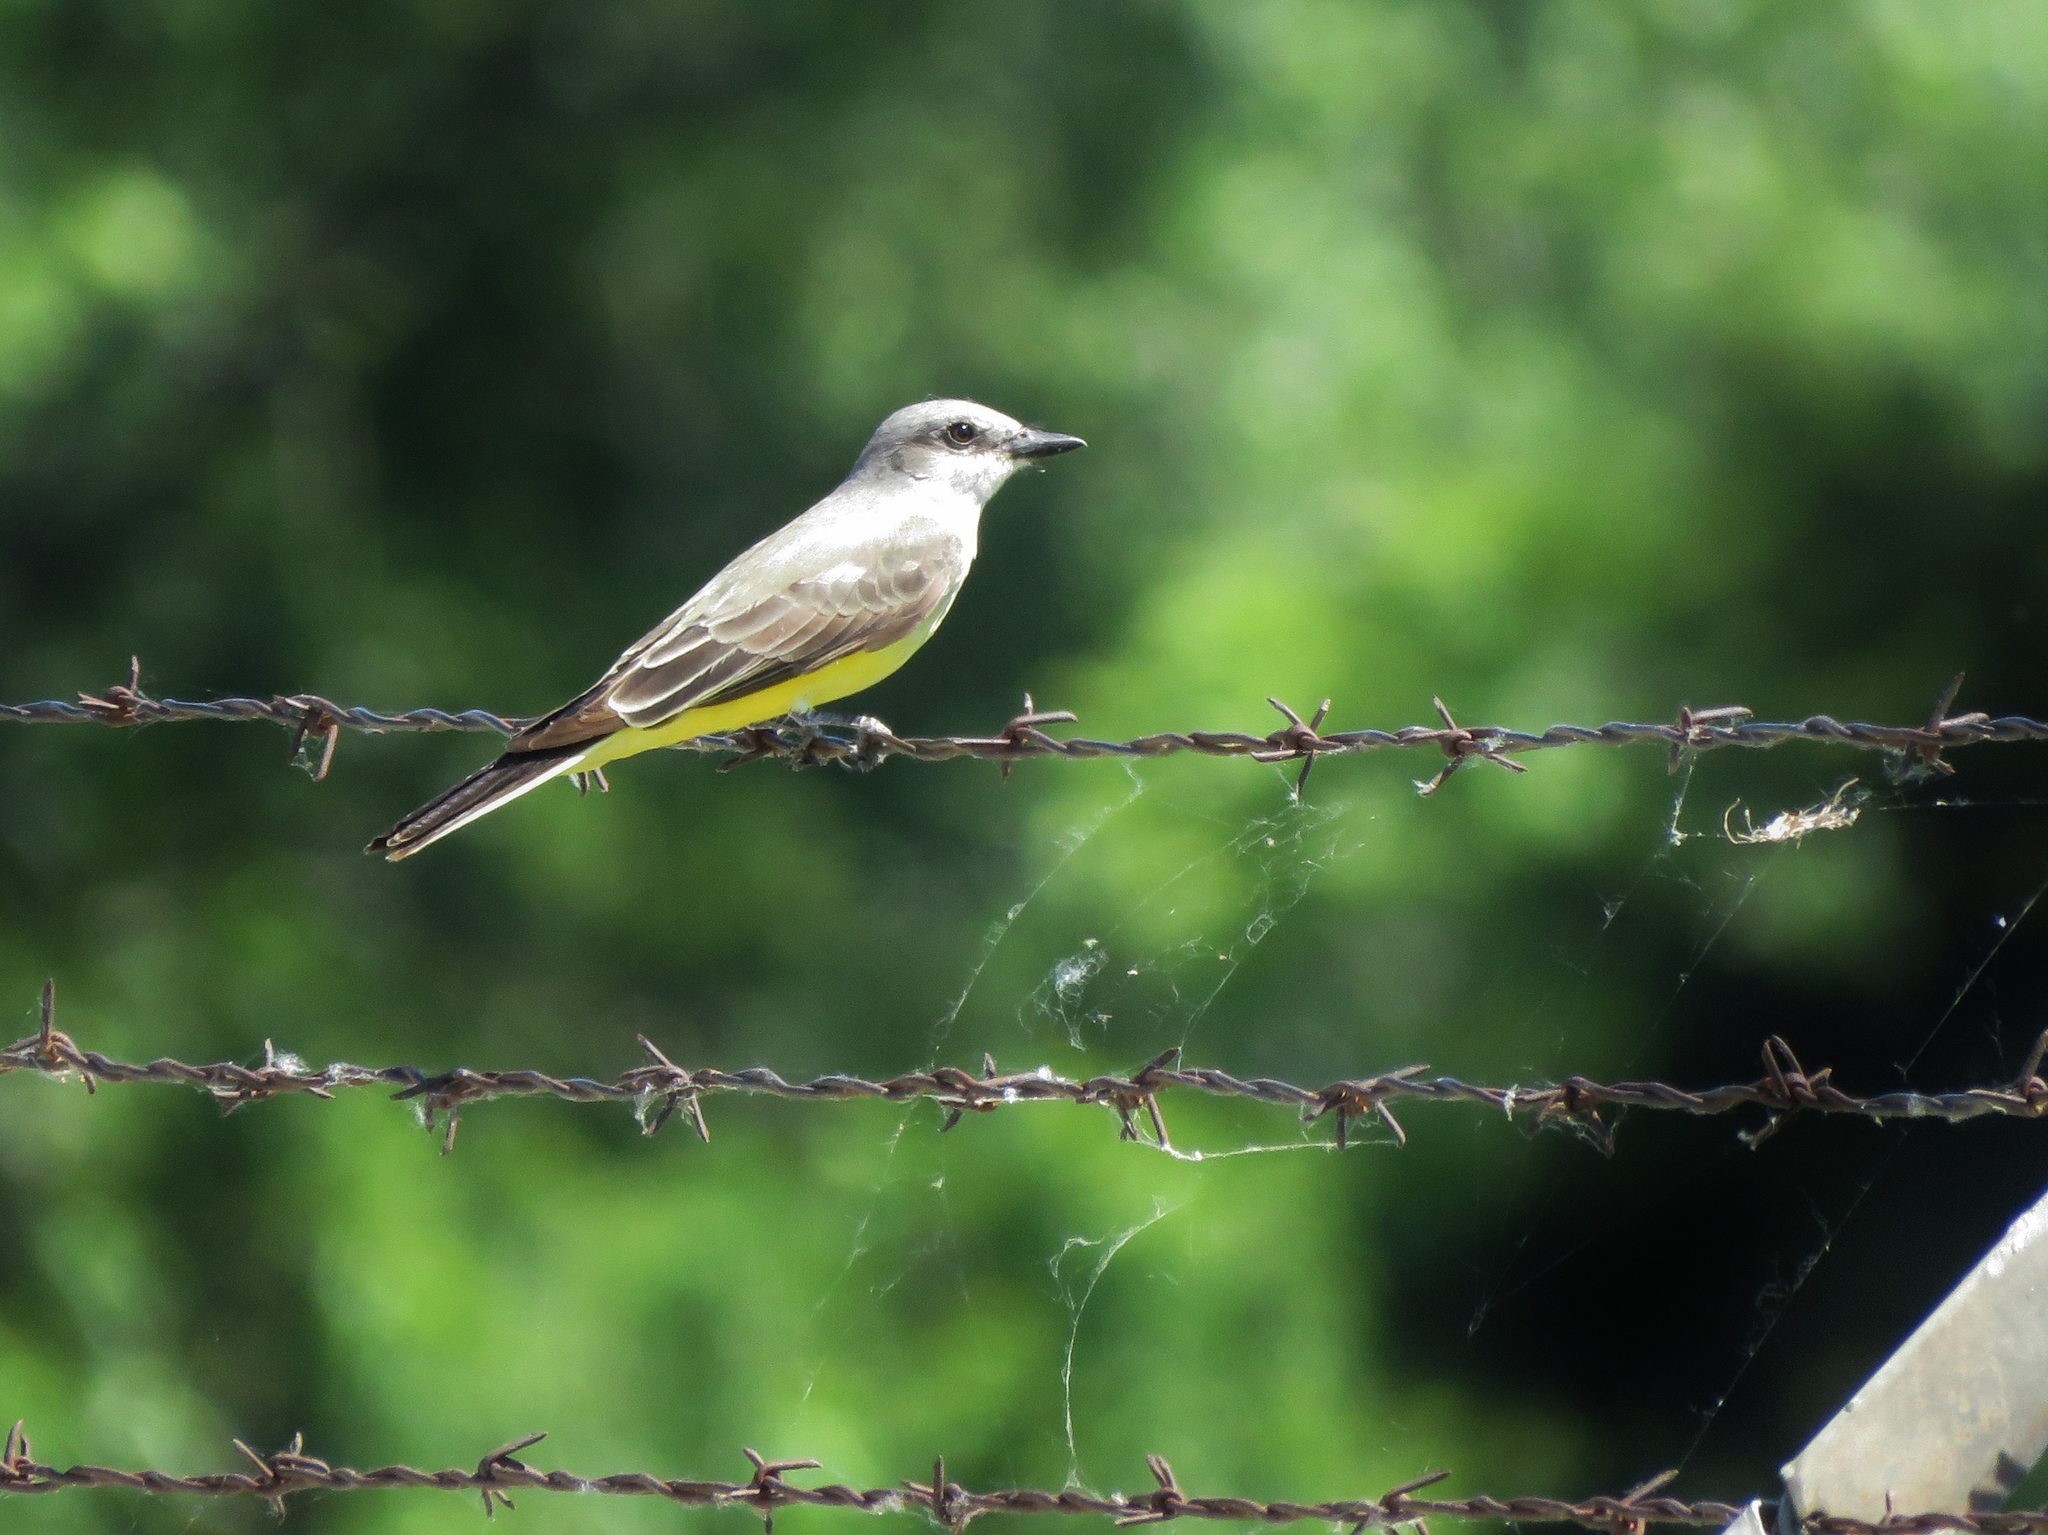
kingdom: Animalia
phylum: Chordata
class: Aves
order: Passeriformes
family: Tyrannidae
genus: Tyrannus
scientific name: Tyrannus verticalis
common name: Western kingbird
